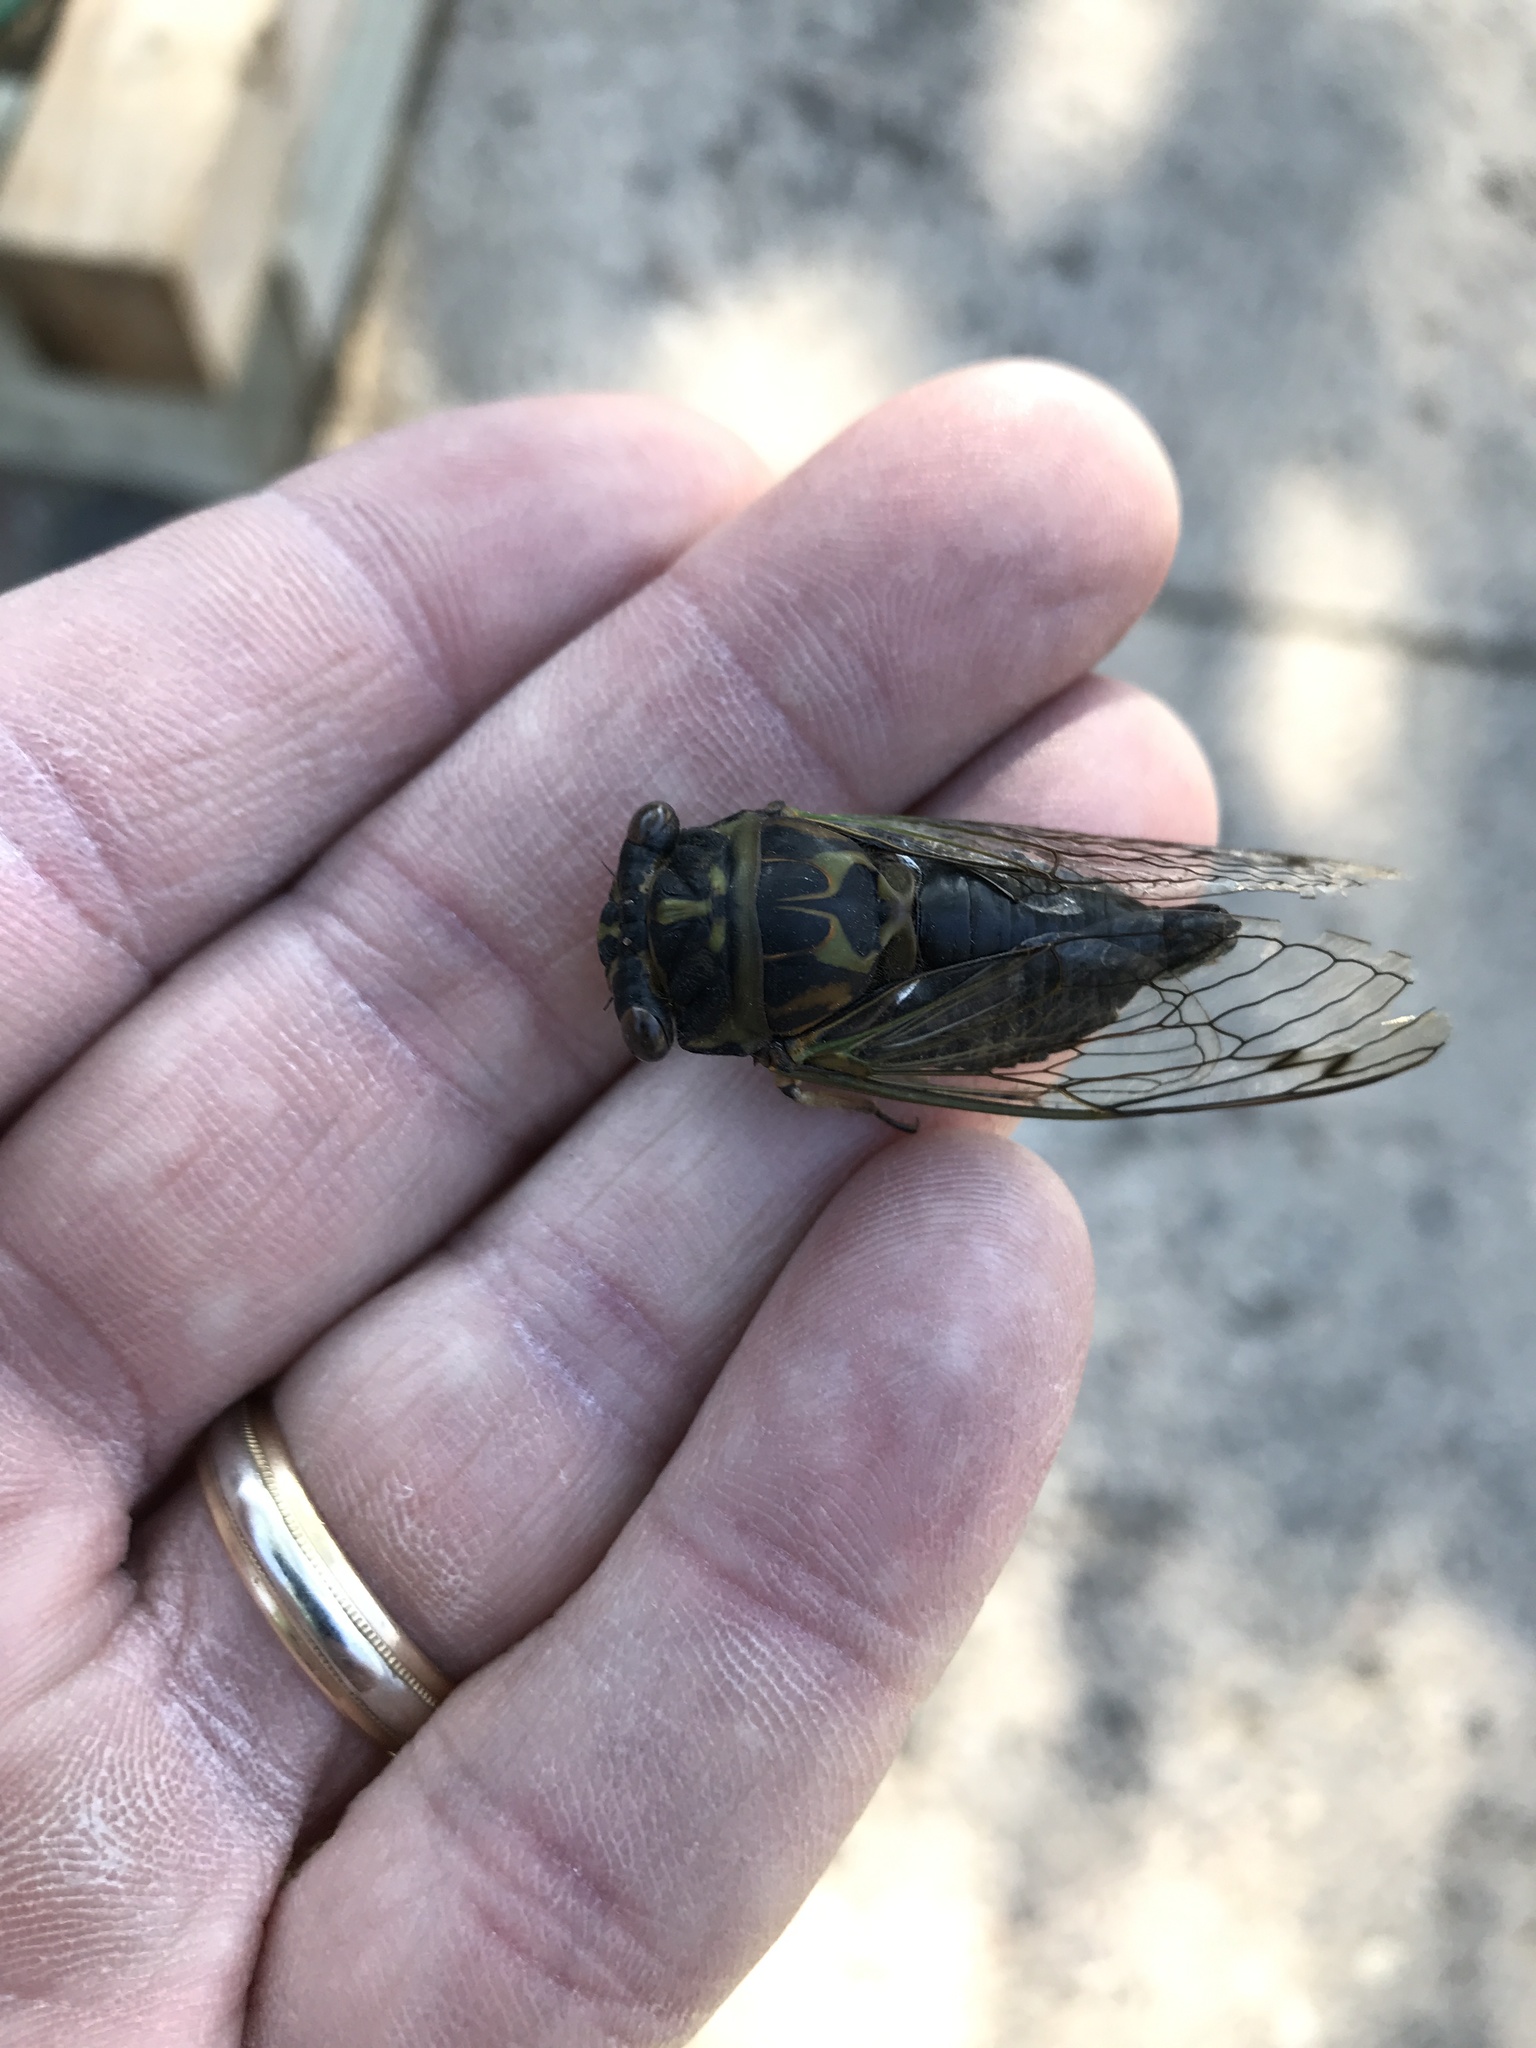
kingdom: Animalia
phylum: Arthropoda
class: Insecta
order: Hemiptera
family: Cicadidae
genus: Neotibicen
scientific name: Neotibicen canicularis
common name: God-day cicada
